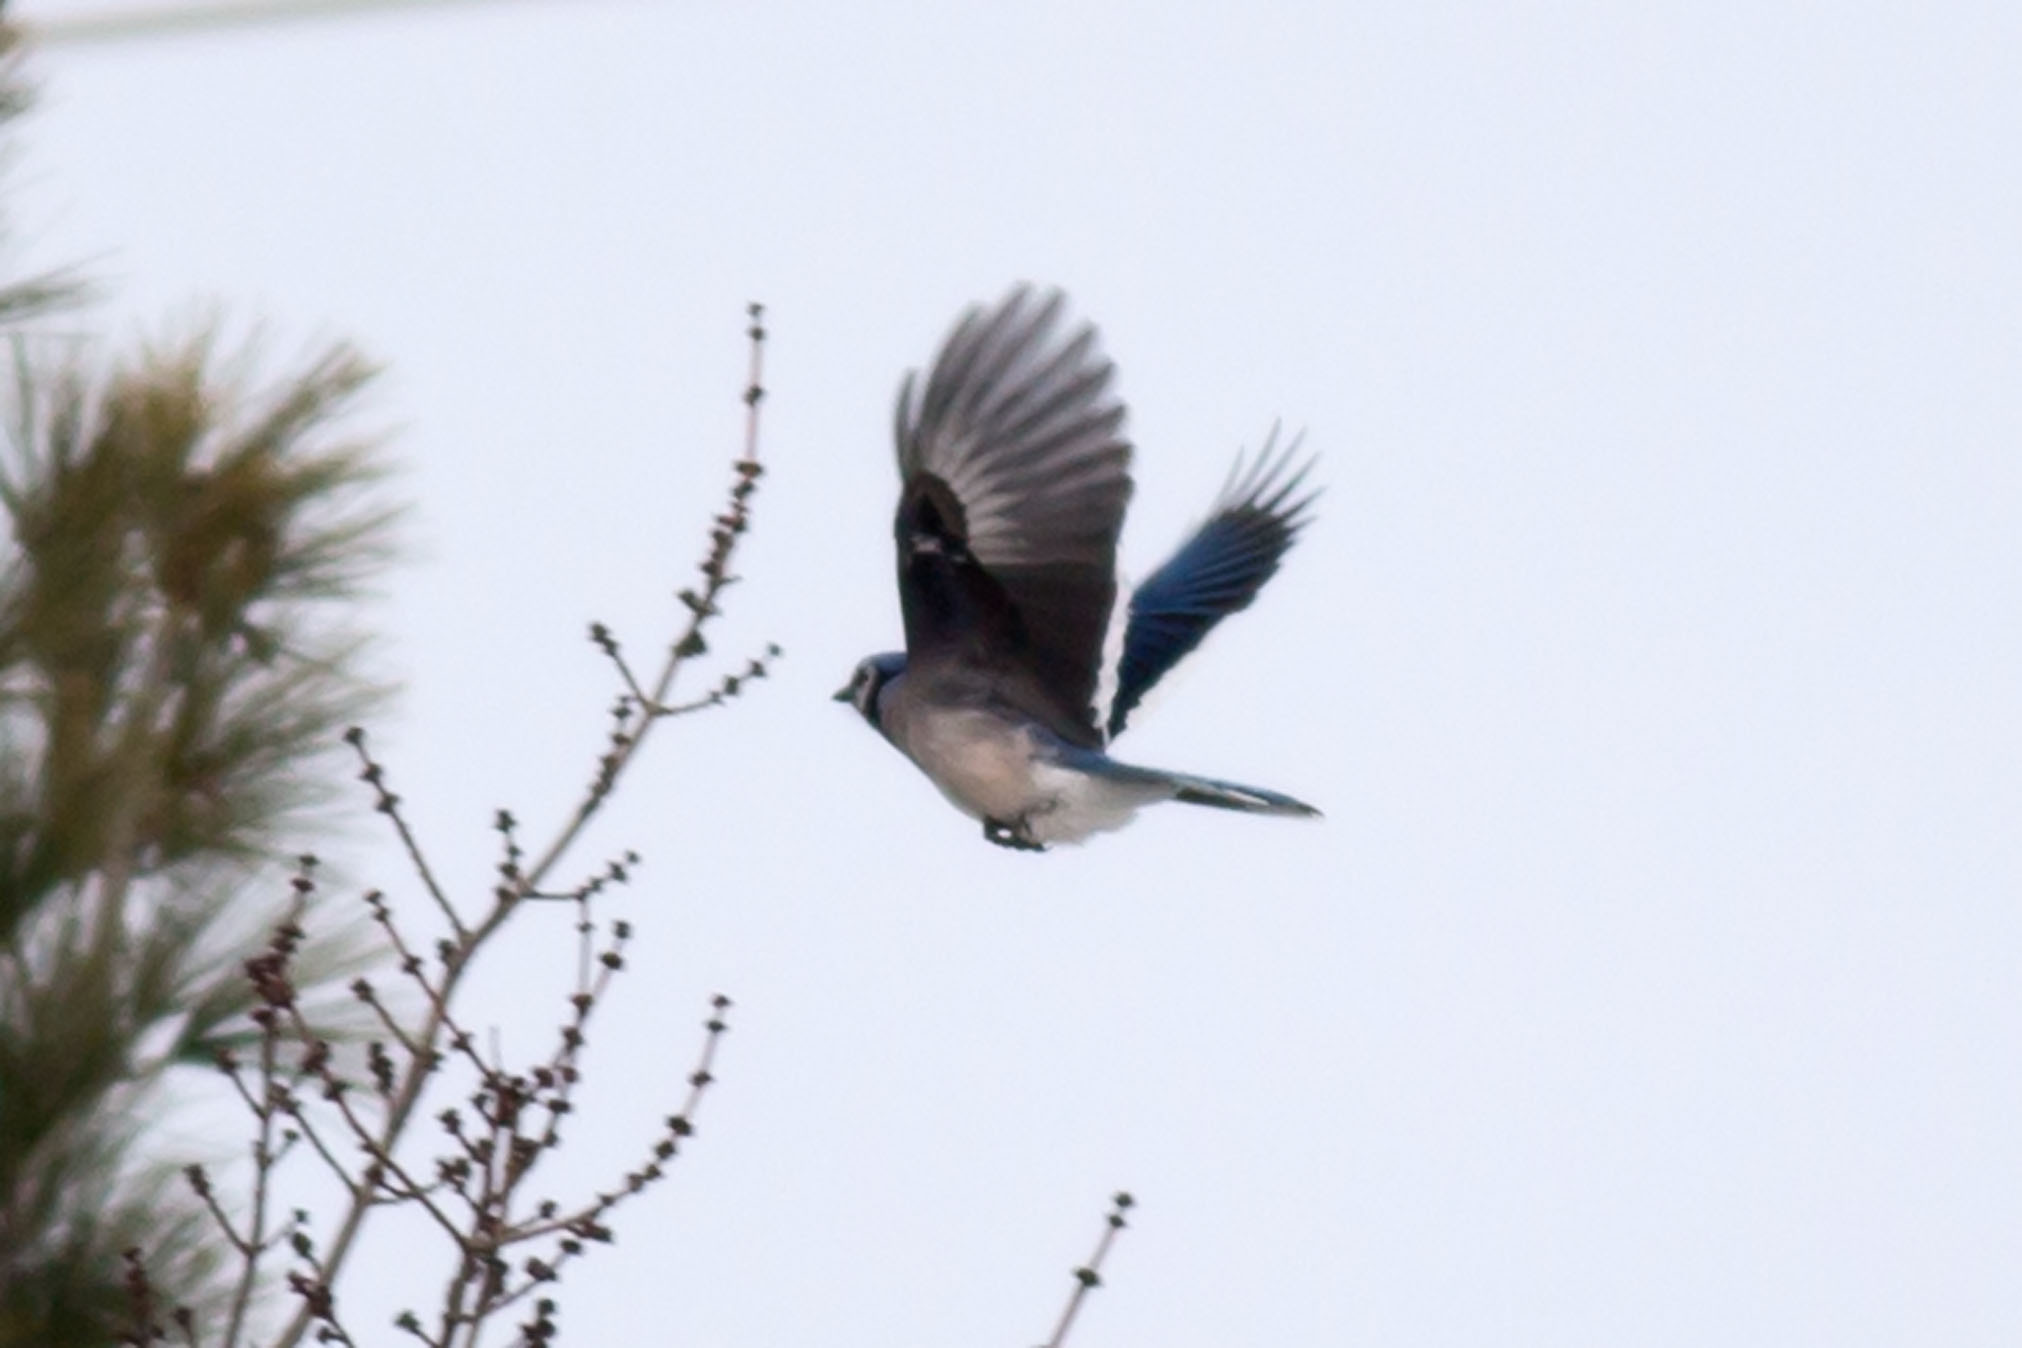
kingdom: Animalia
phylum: Chordata
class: Aves
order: Passeriformes
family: Corvidae
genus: Cyanocitta
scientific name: Cyanocitta cristata
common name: Blue jay
